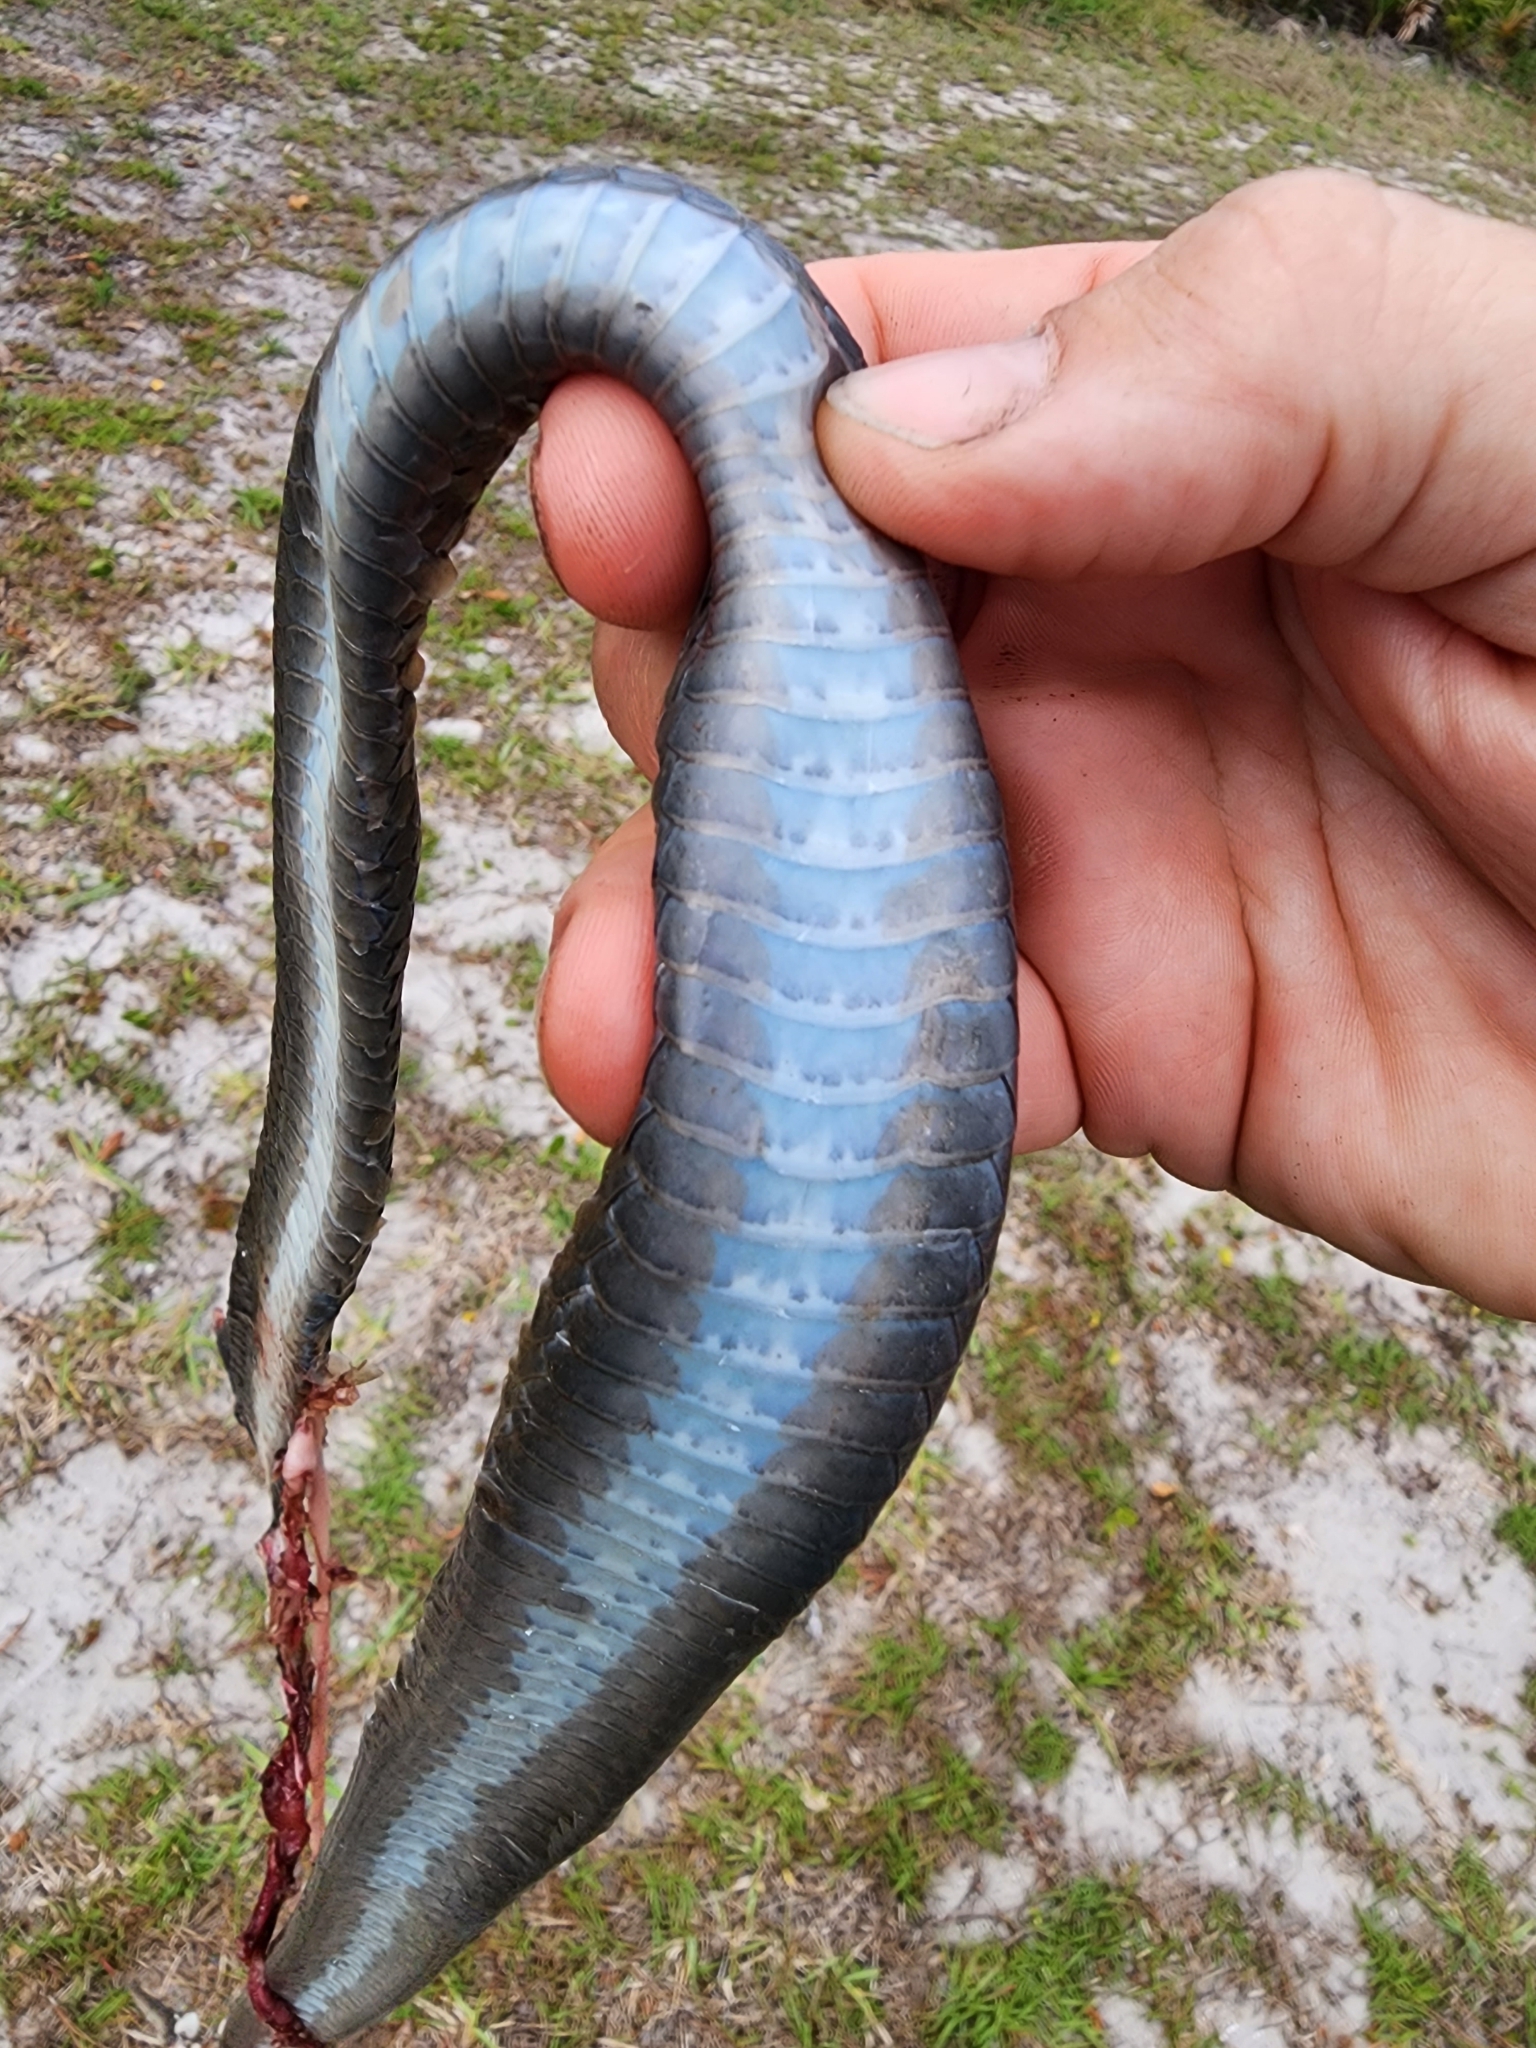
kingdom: Animalia
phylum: Chordata
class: Squamata
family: Colubridae
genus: Coluber
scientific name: Coluber constrictor
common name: Eastern racer
